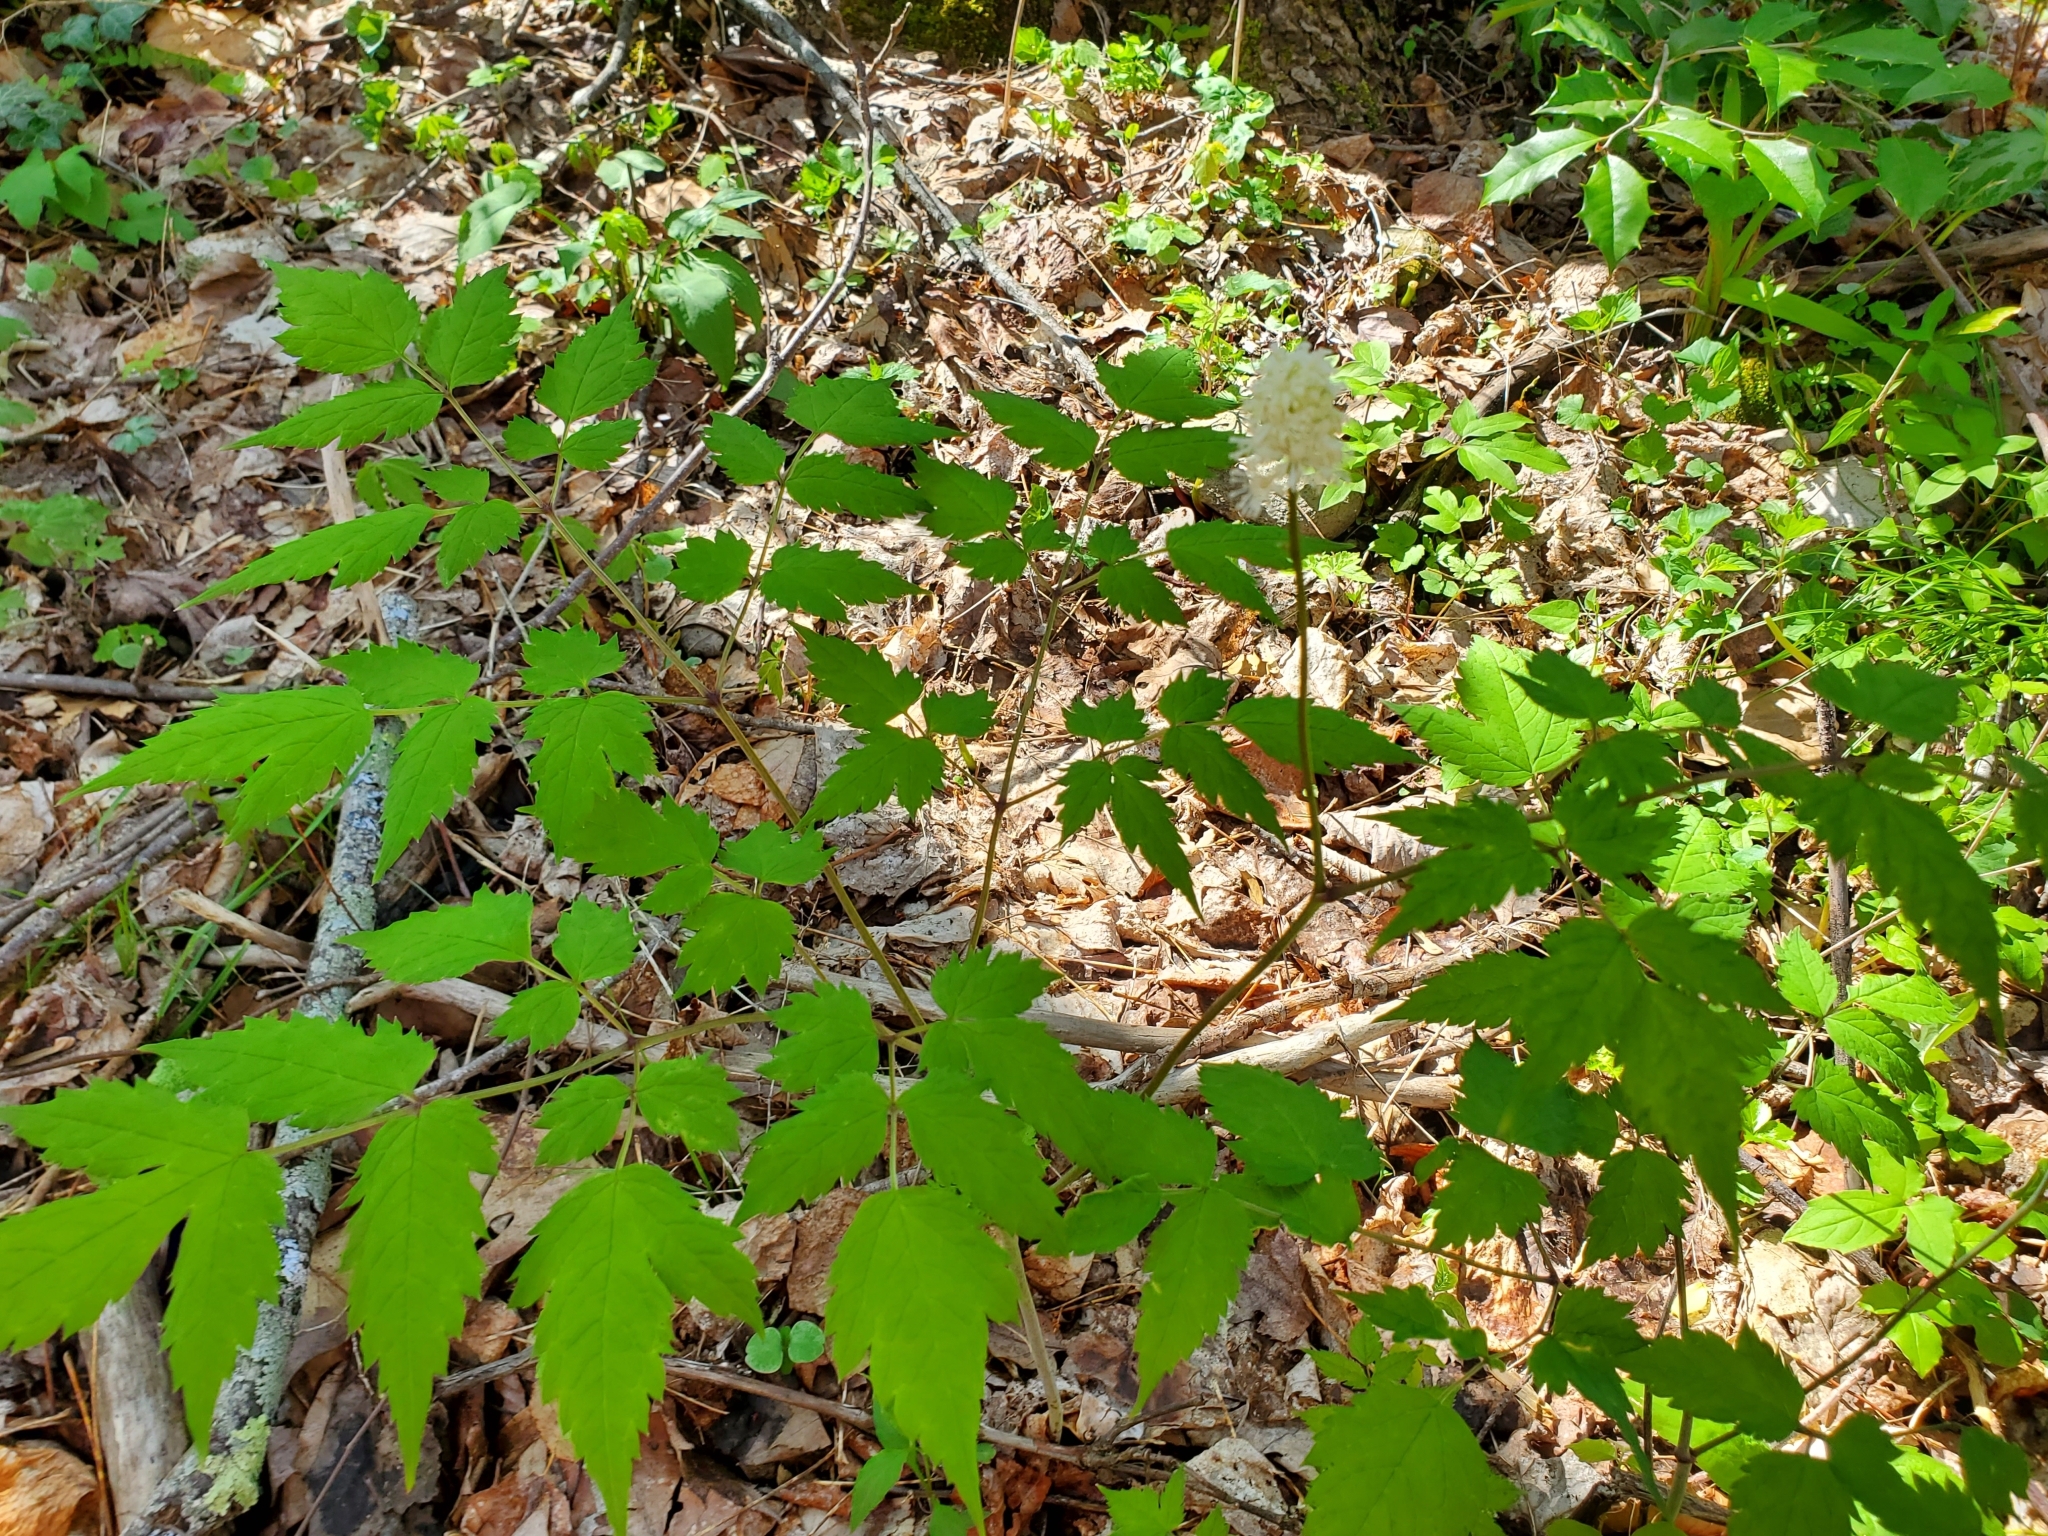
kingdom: Plantae
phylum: Tracheophyta
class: Magnoliopsida
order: Ranunculales
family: Ranunculaceae
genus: Actaea
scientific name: Actaea pachypoda
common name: Doll's-eyes
